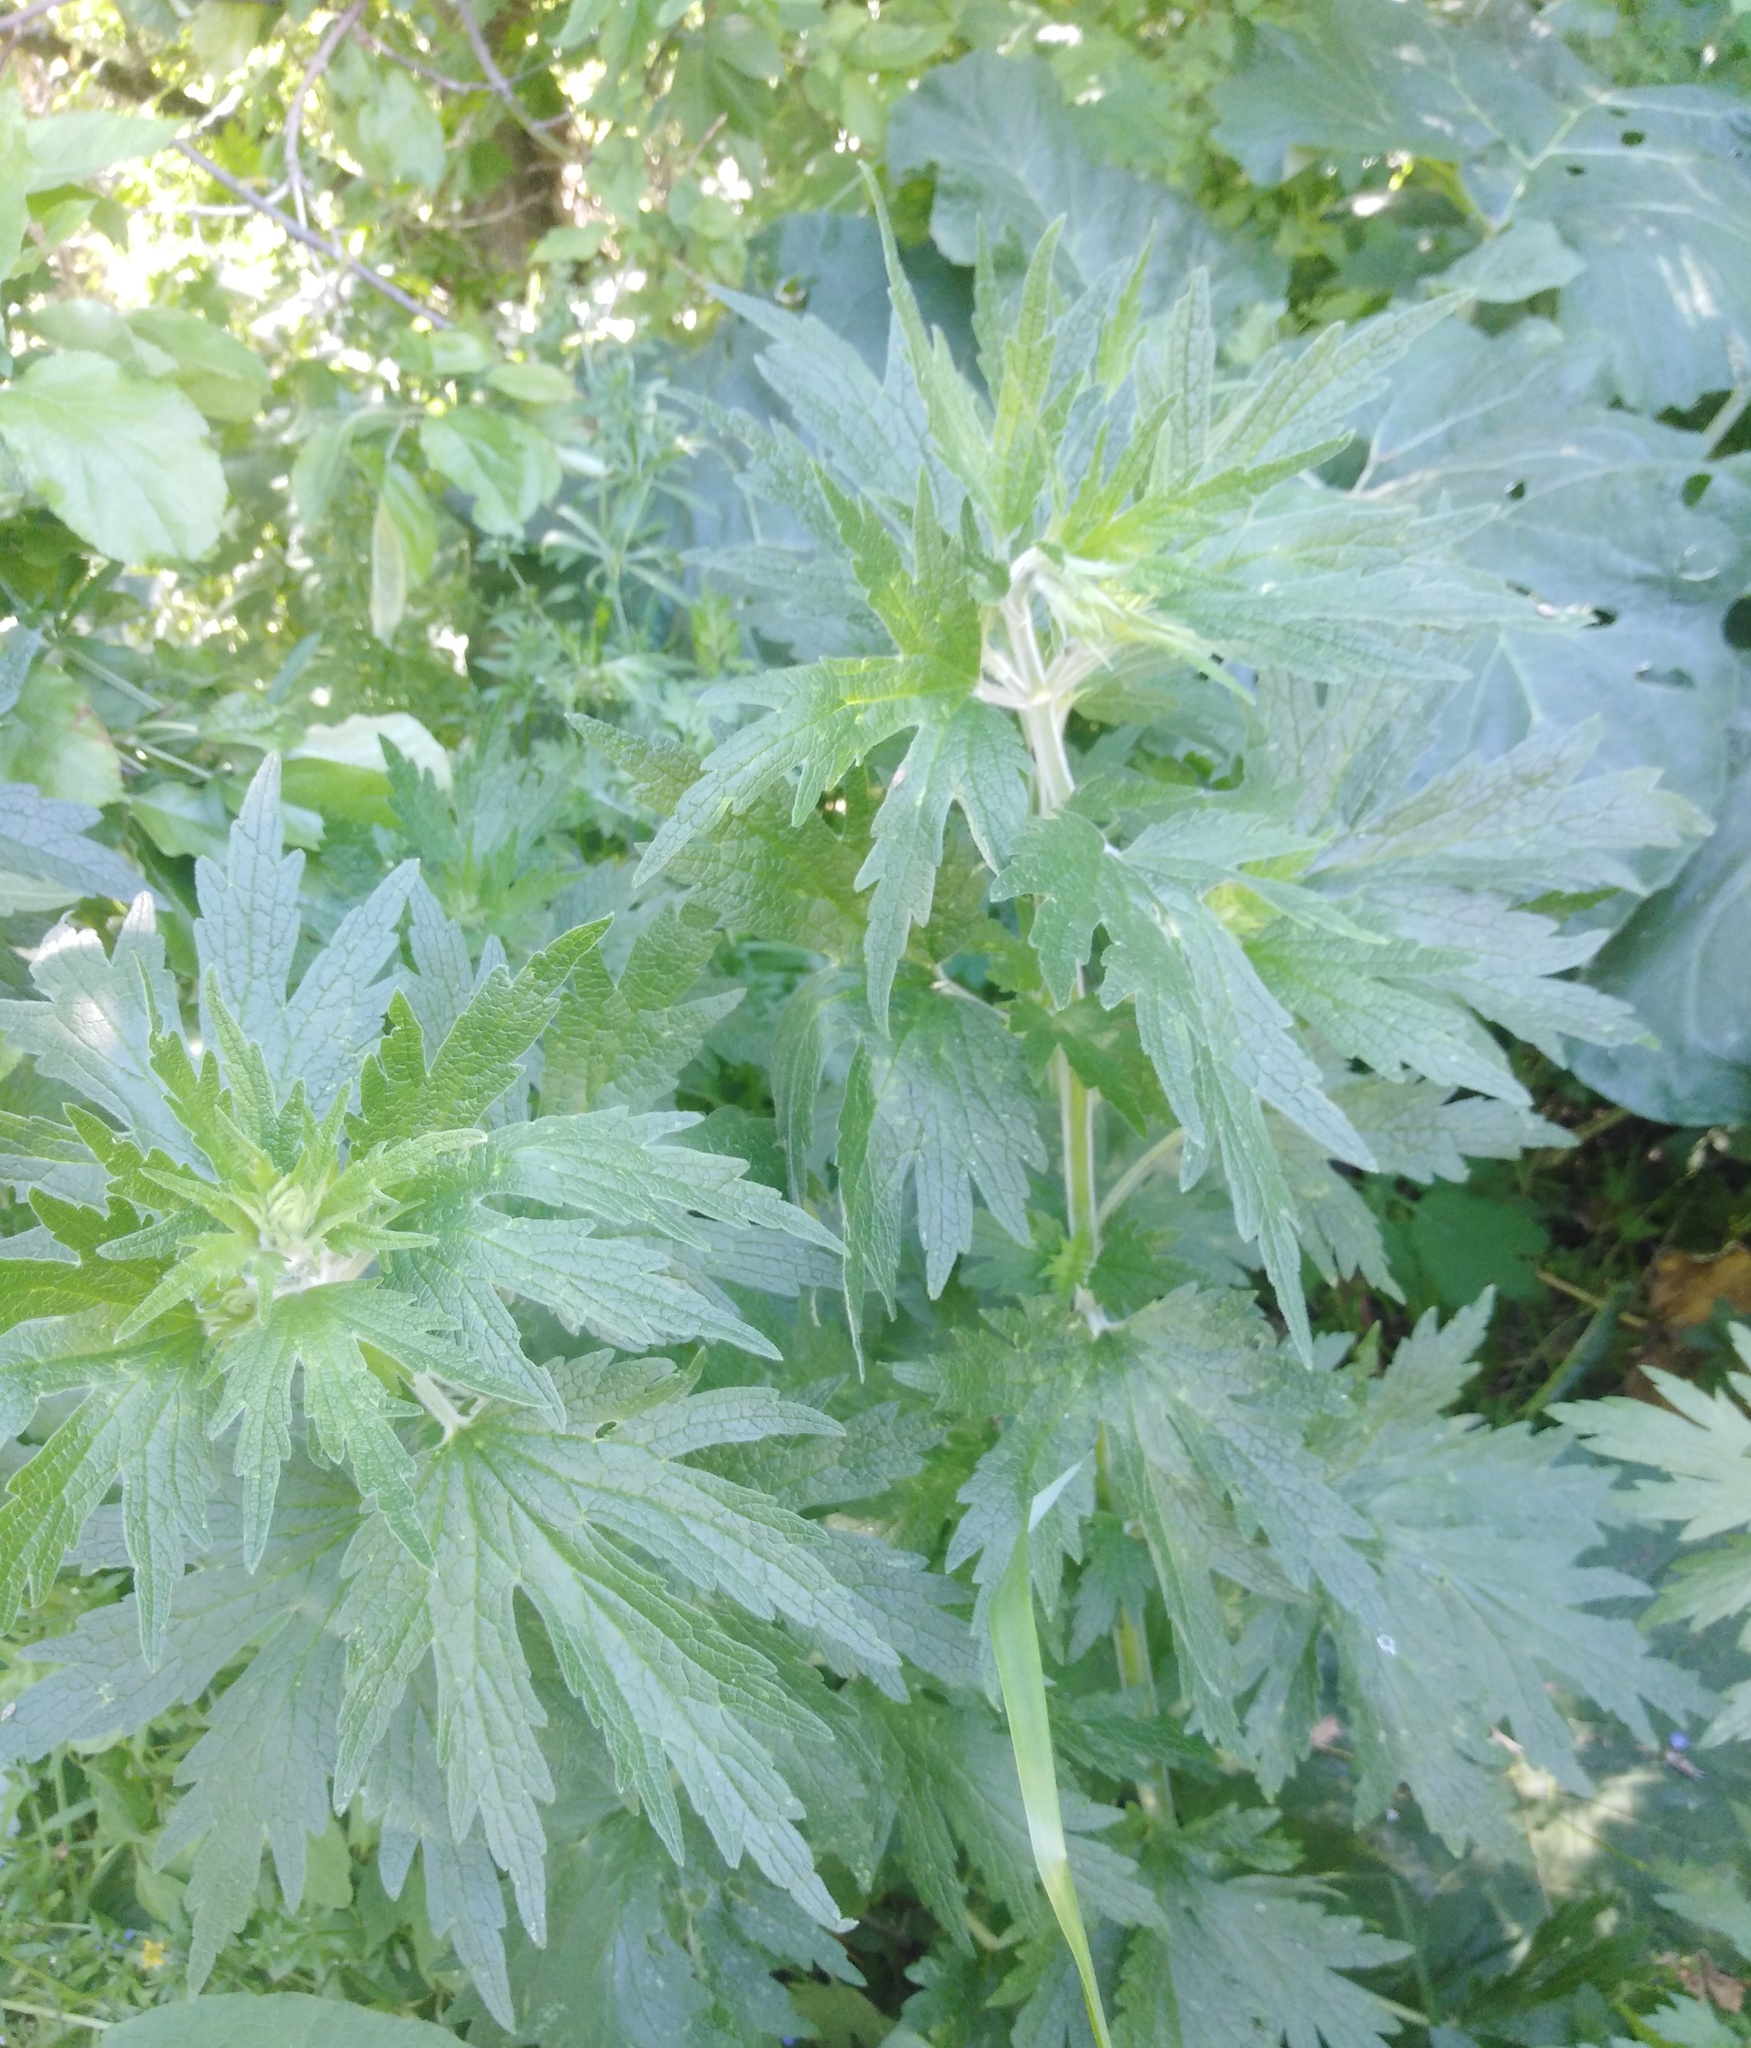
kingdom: Plantae
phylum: Tracheophyta
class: Magnoliopsida
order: Lamiales
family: Lamiaceae
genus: Leonurus
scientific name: Leonurus quinquelobatus
